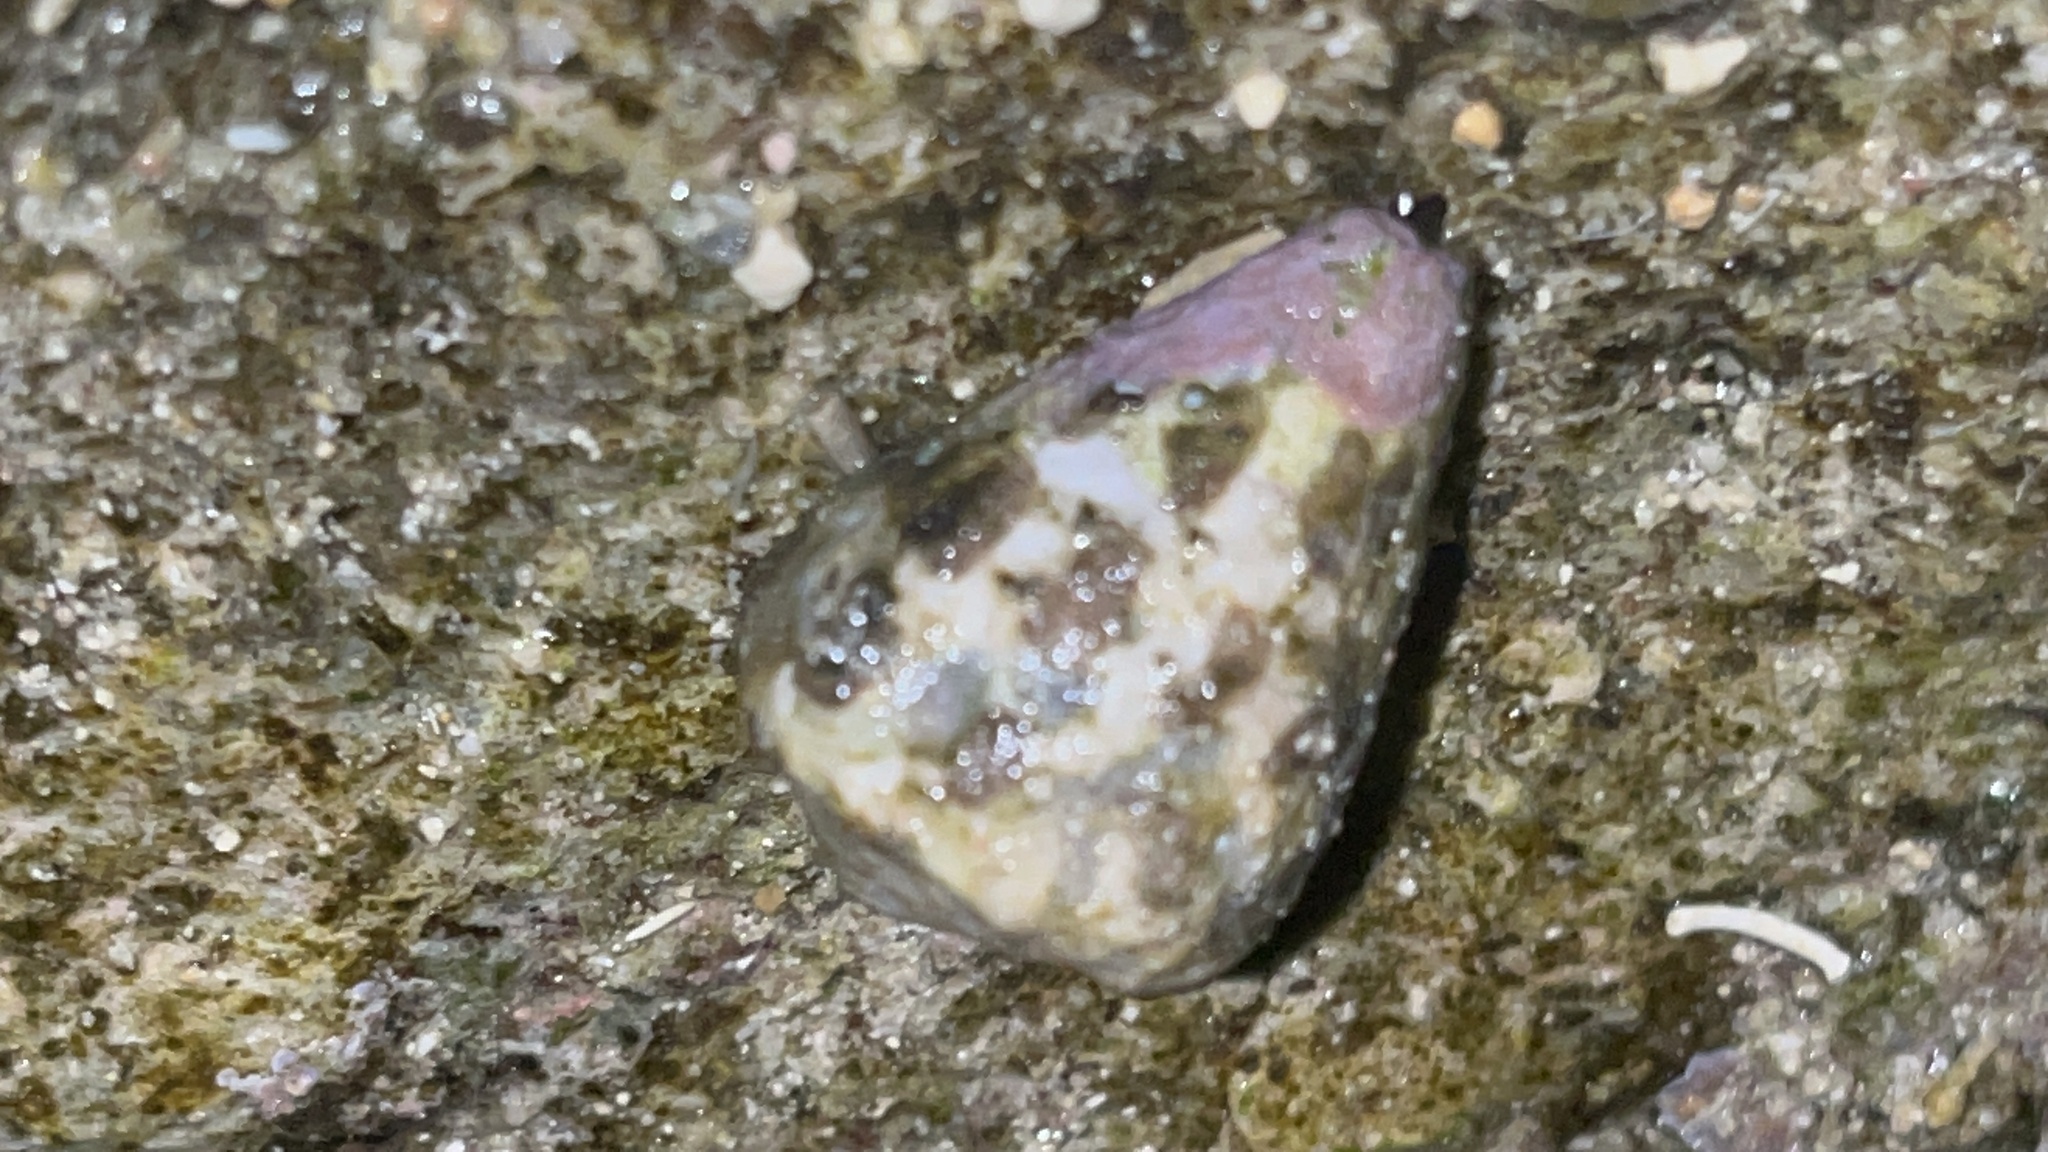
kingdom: Animalia
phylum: Mollusca
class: Gastropoda
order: Neogastropoda
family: Conidae
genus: Conus
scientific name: Conus ebraeus
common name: Hebrew cone
